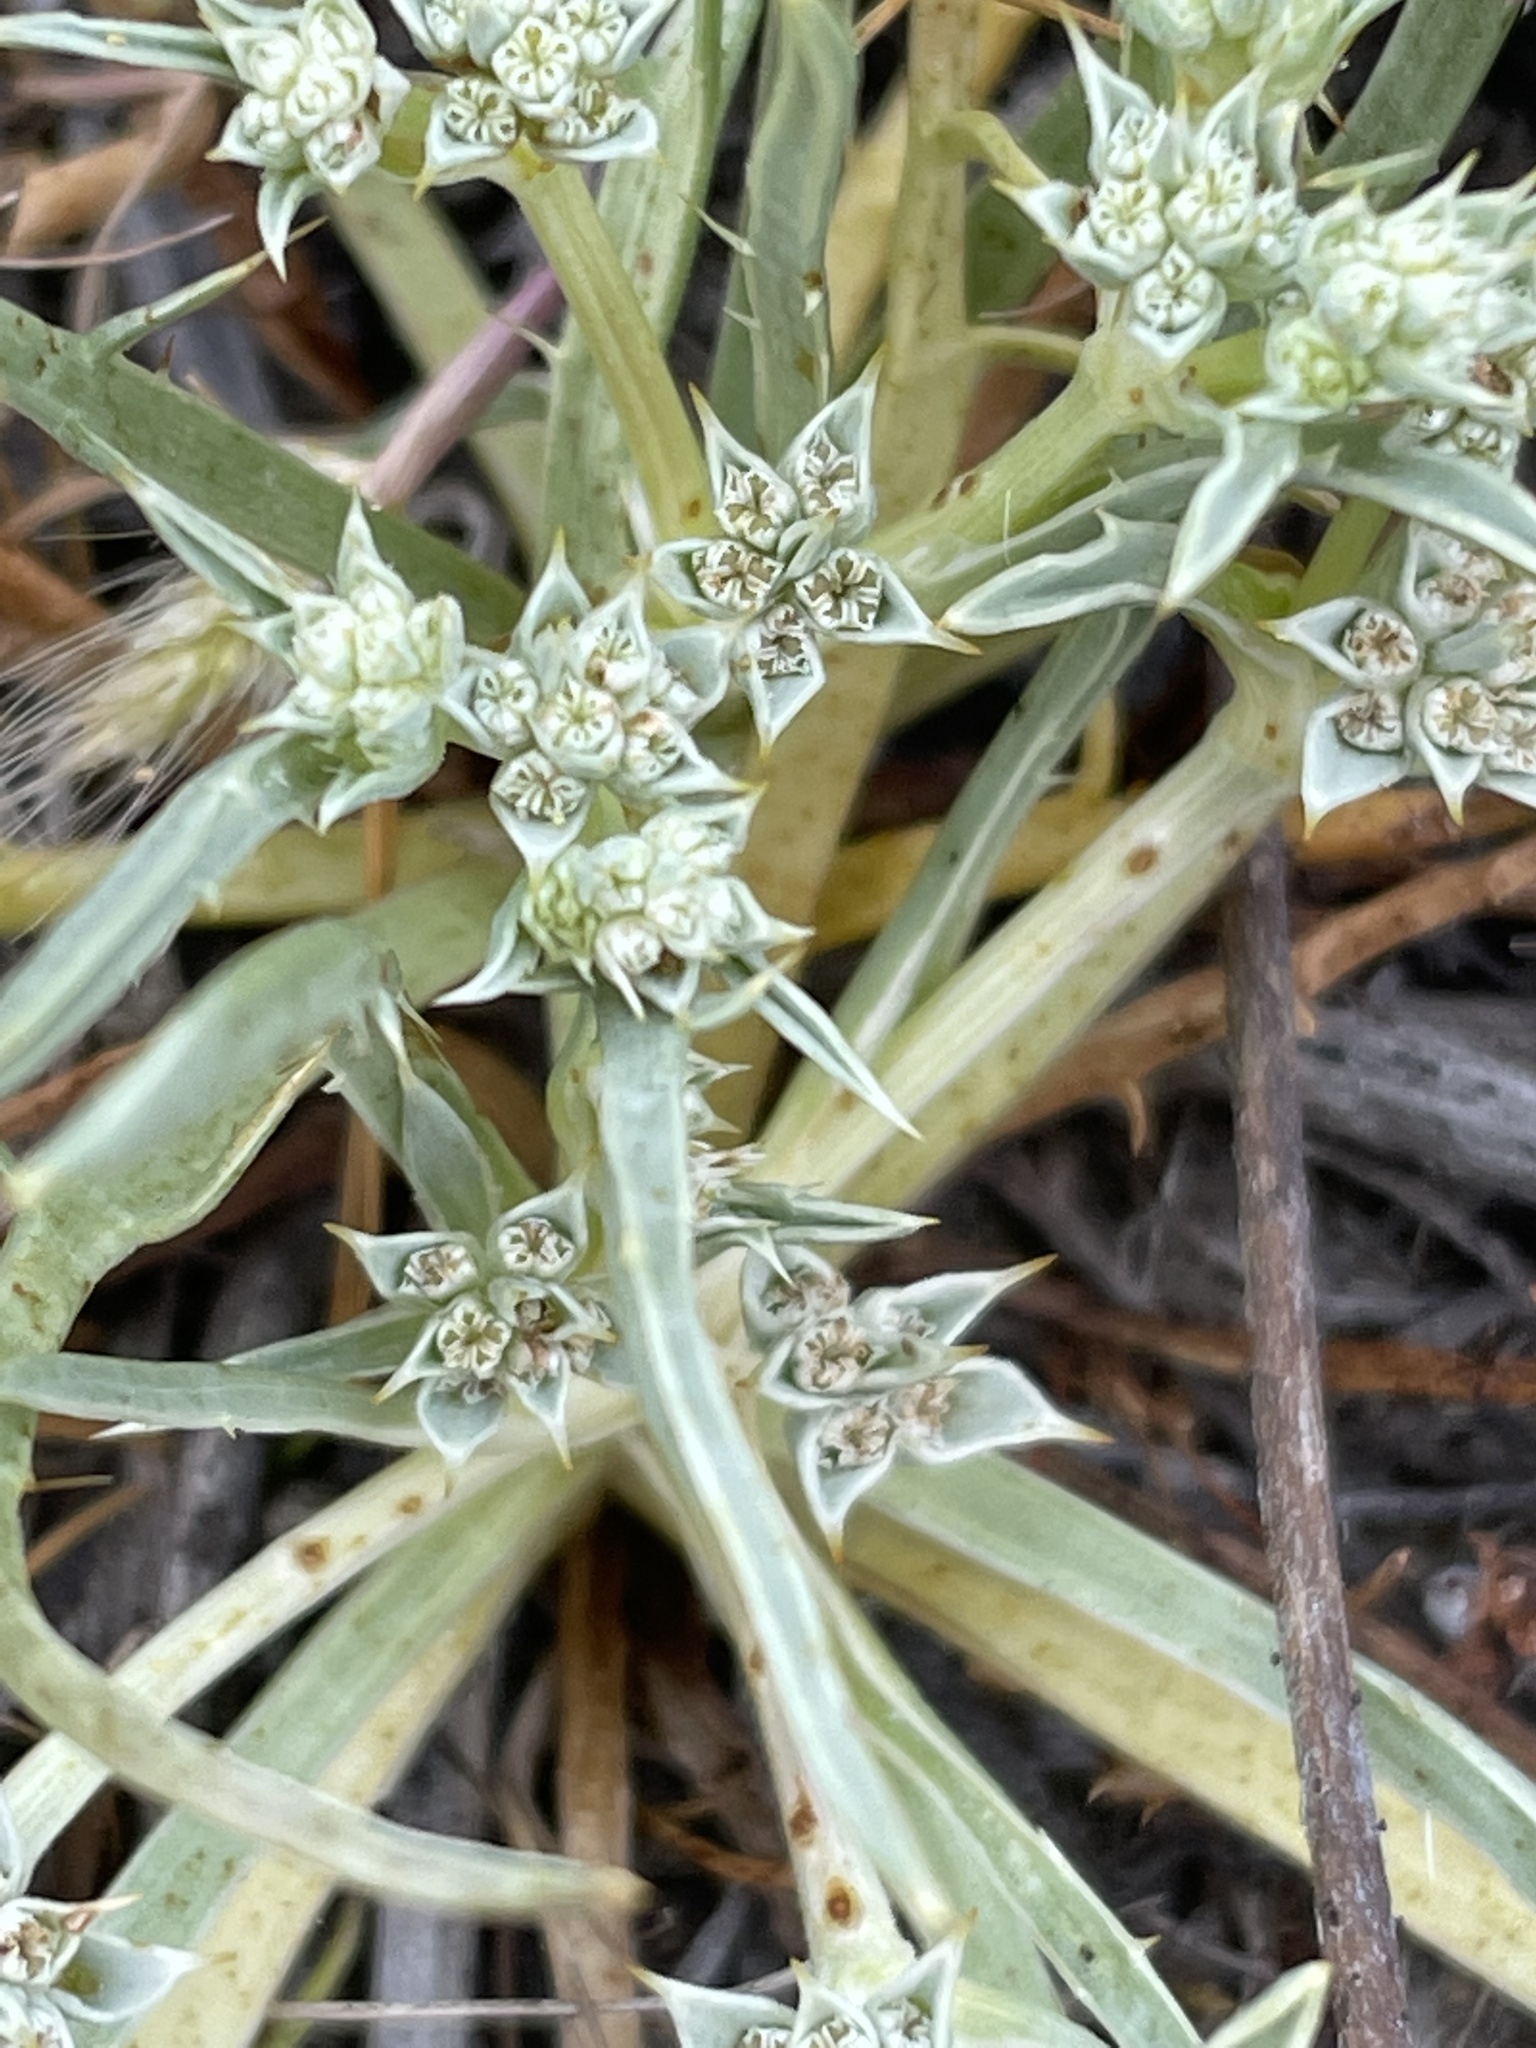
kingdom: Plantae
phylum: Tracheophyta
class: Magnoliopsida
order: Apiales
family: Apiaceae
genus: Eryngium
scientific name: Eryngium montereyense
